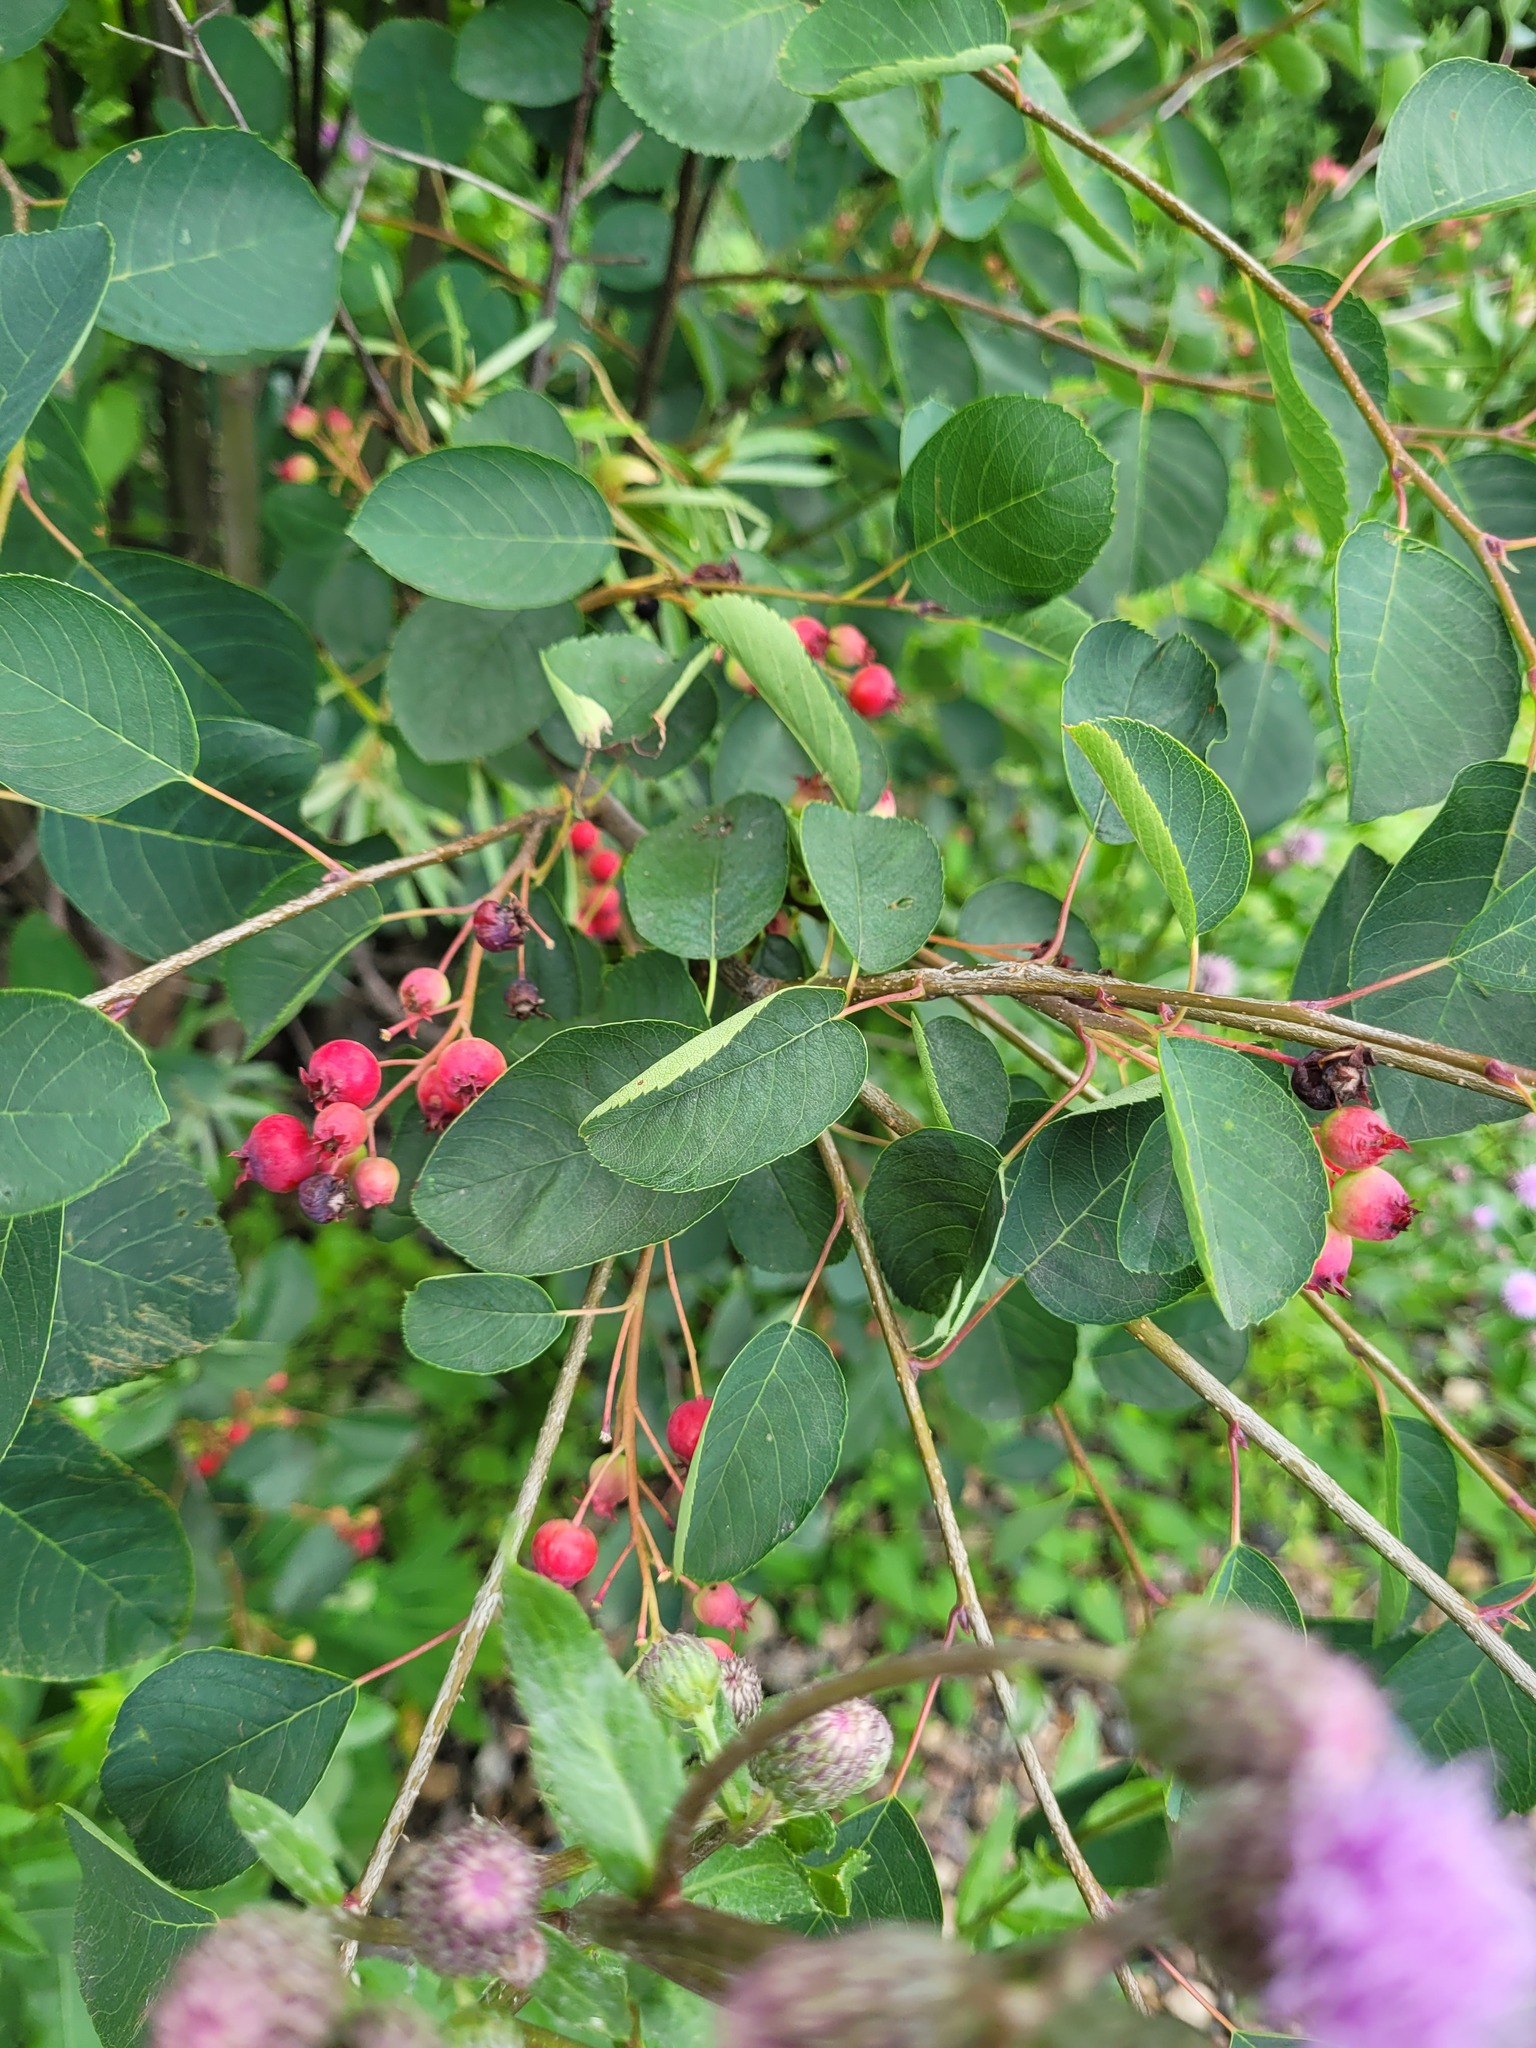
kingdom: Plantae
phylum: Tracheophyta
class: Magnoliopsida
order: Rosales
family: Rosaceae
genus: Amelanchier
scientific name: Amelanchier
